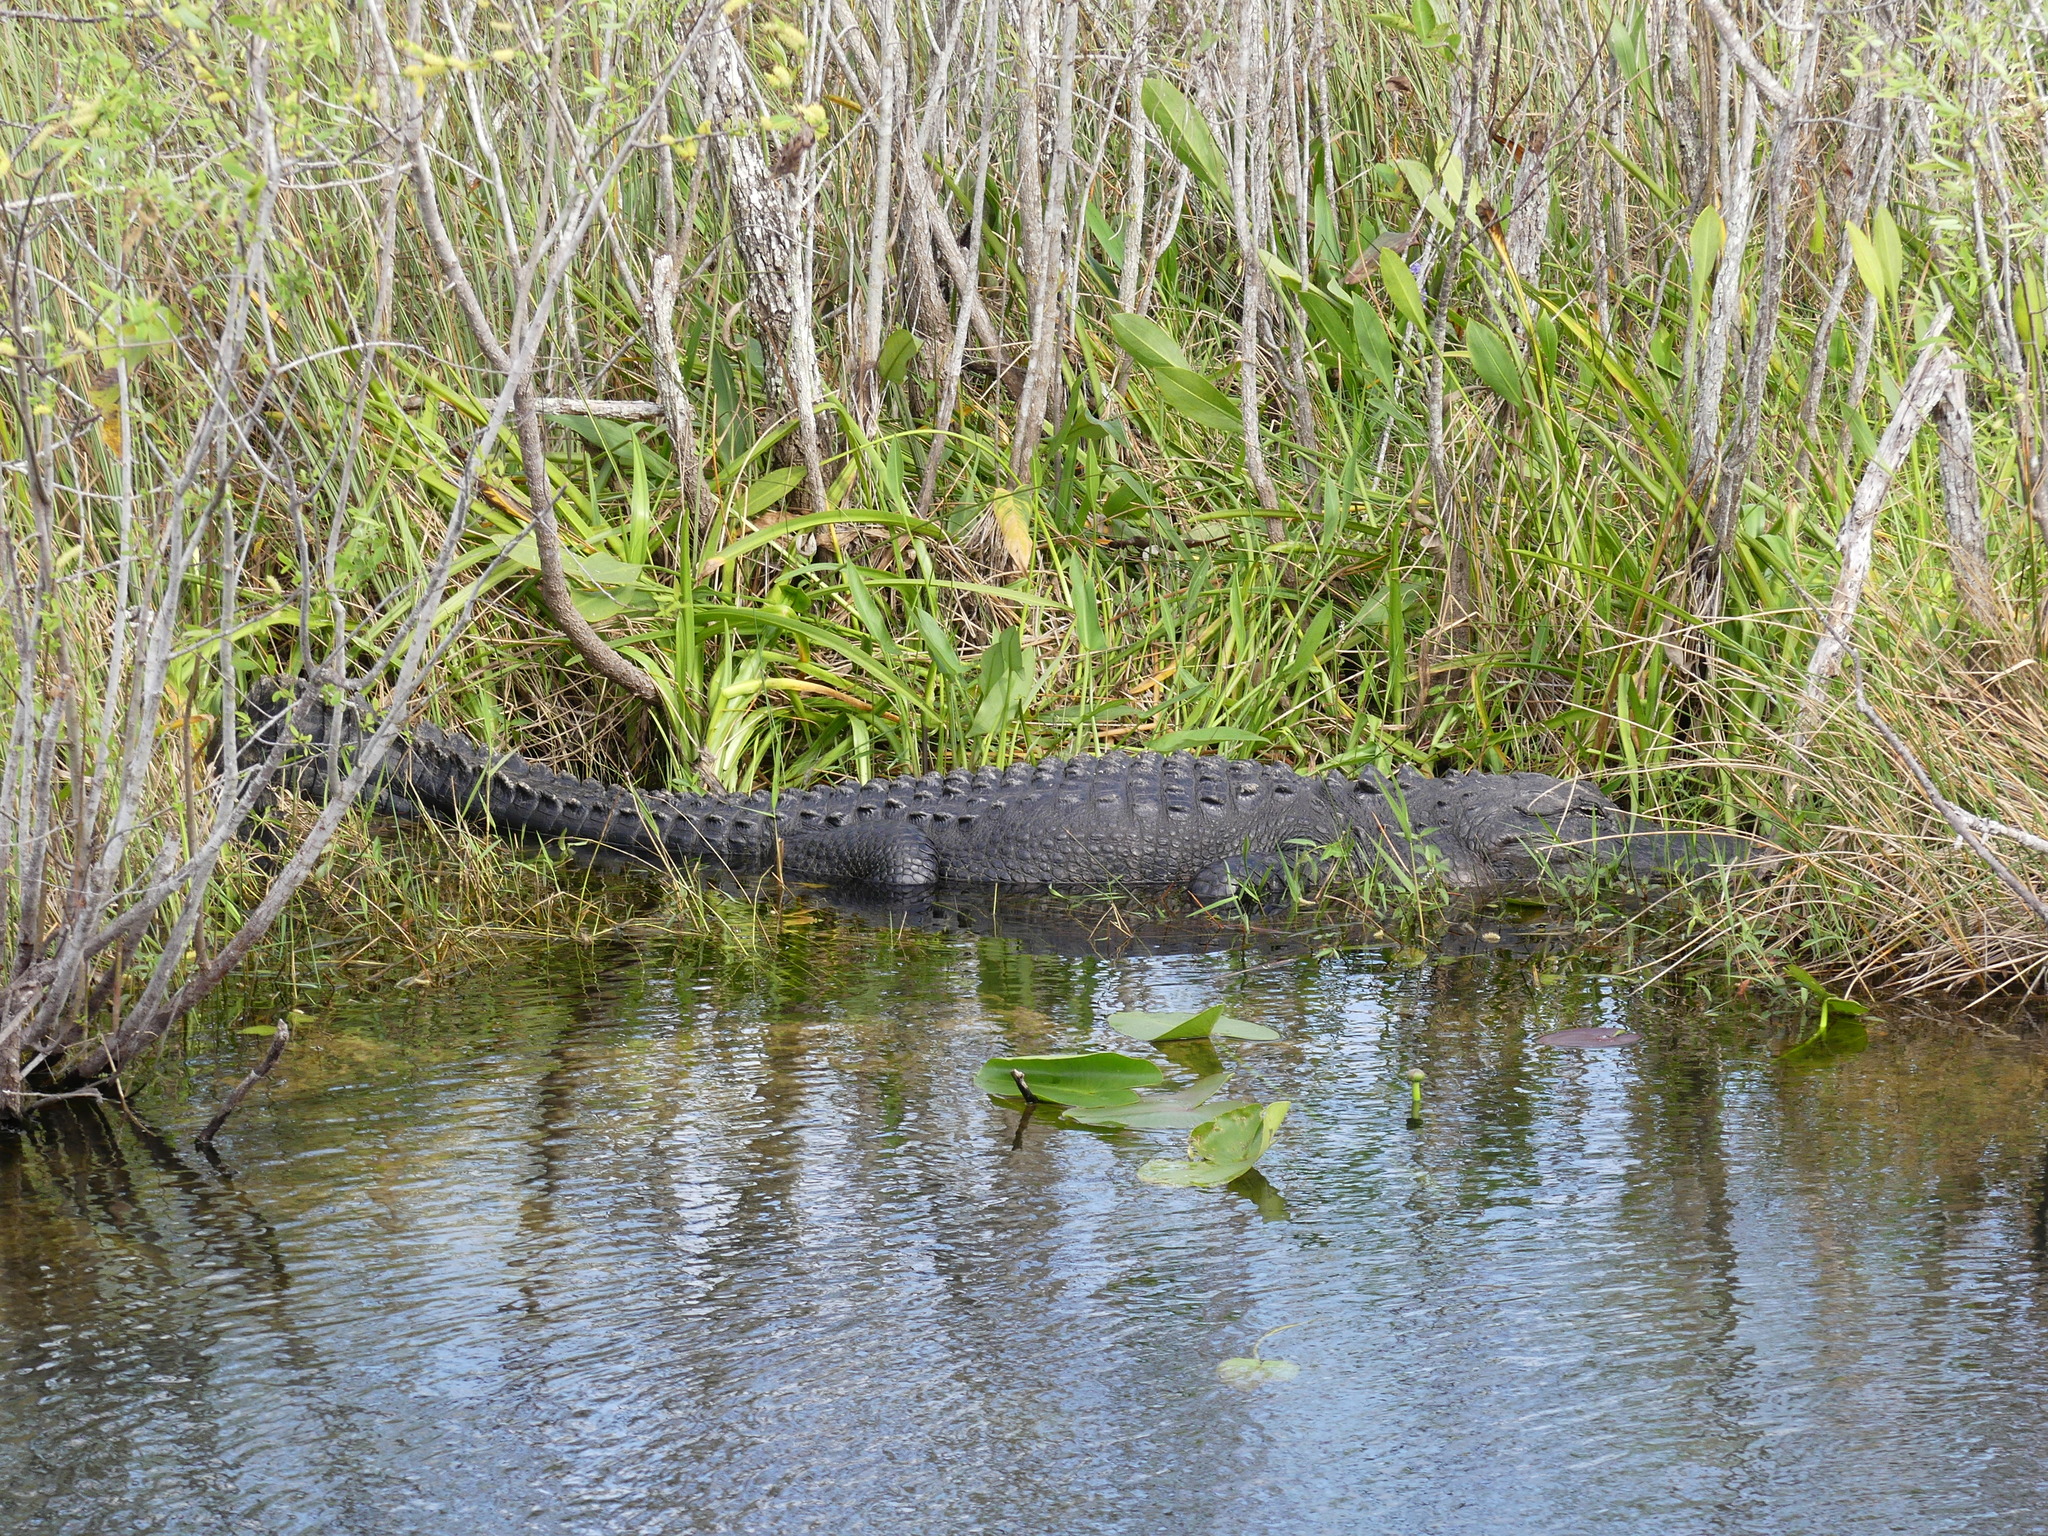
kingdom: Animalia
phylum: Chordata
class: Crocodylia
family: Alligatoridae
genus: Alligator
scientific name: Alligator mississippiensis
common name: American alligator
